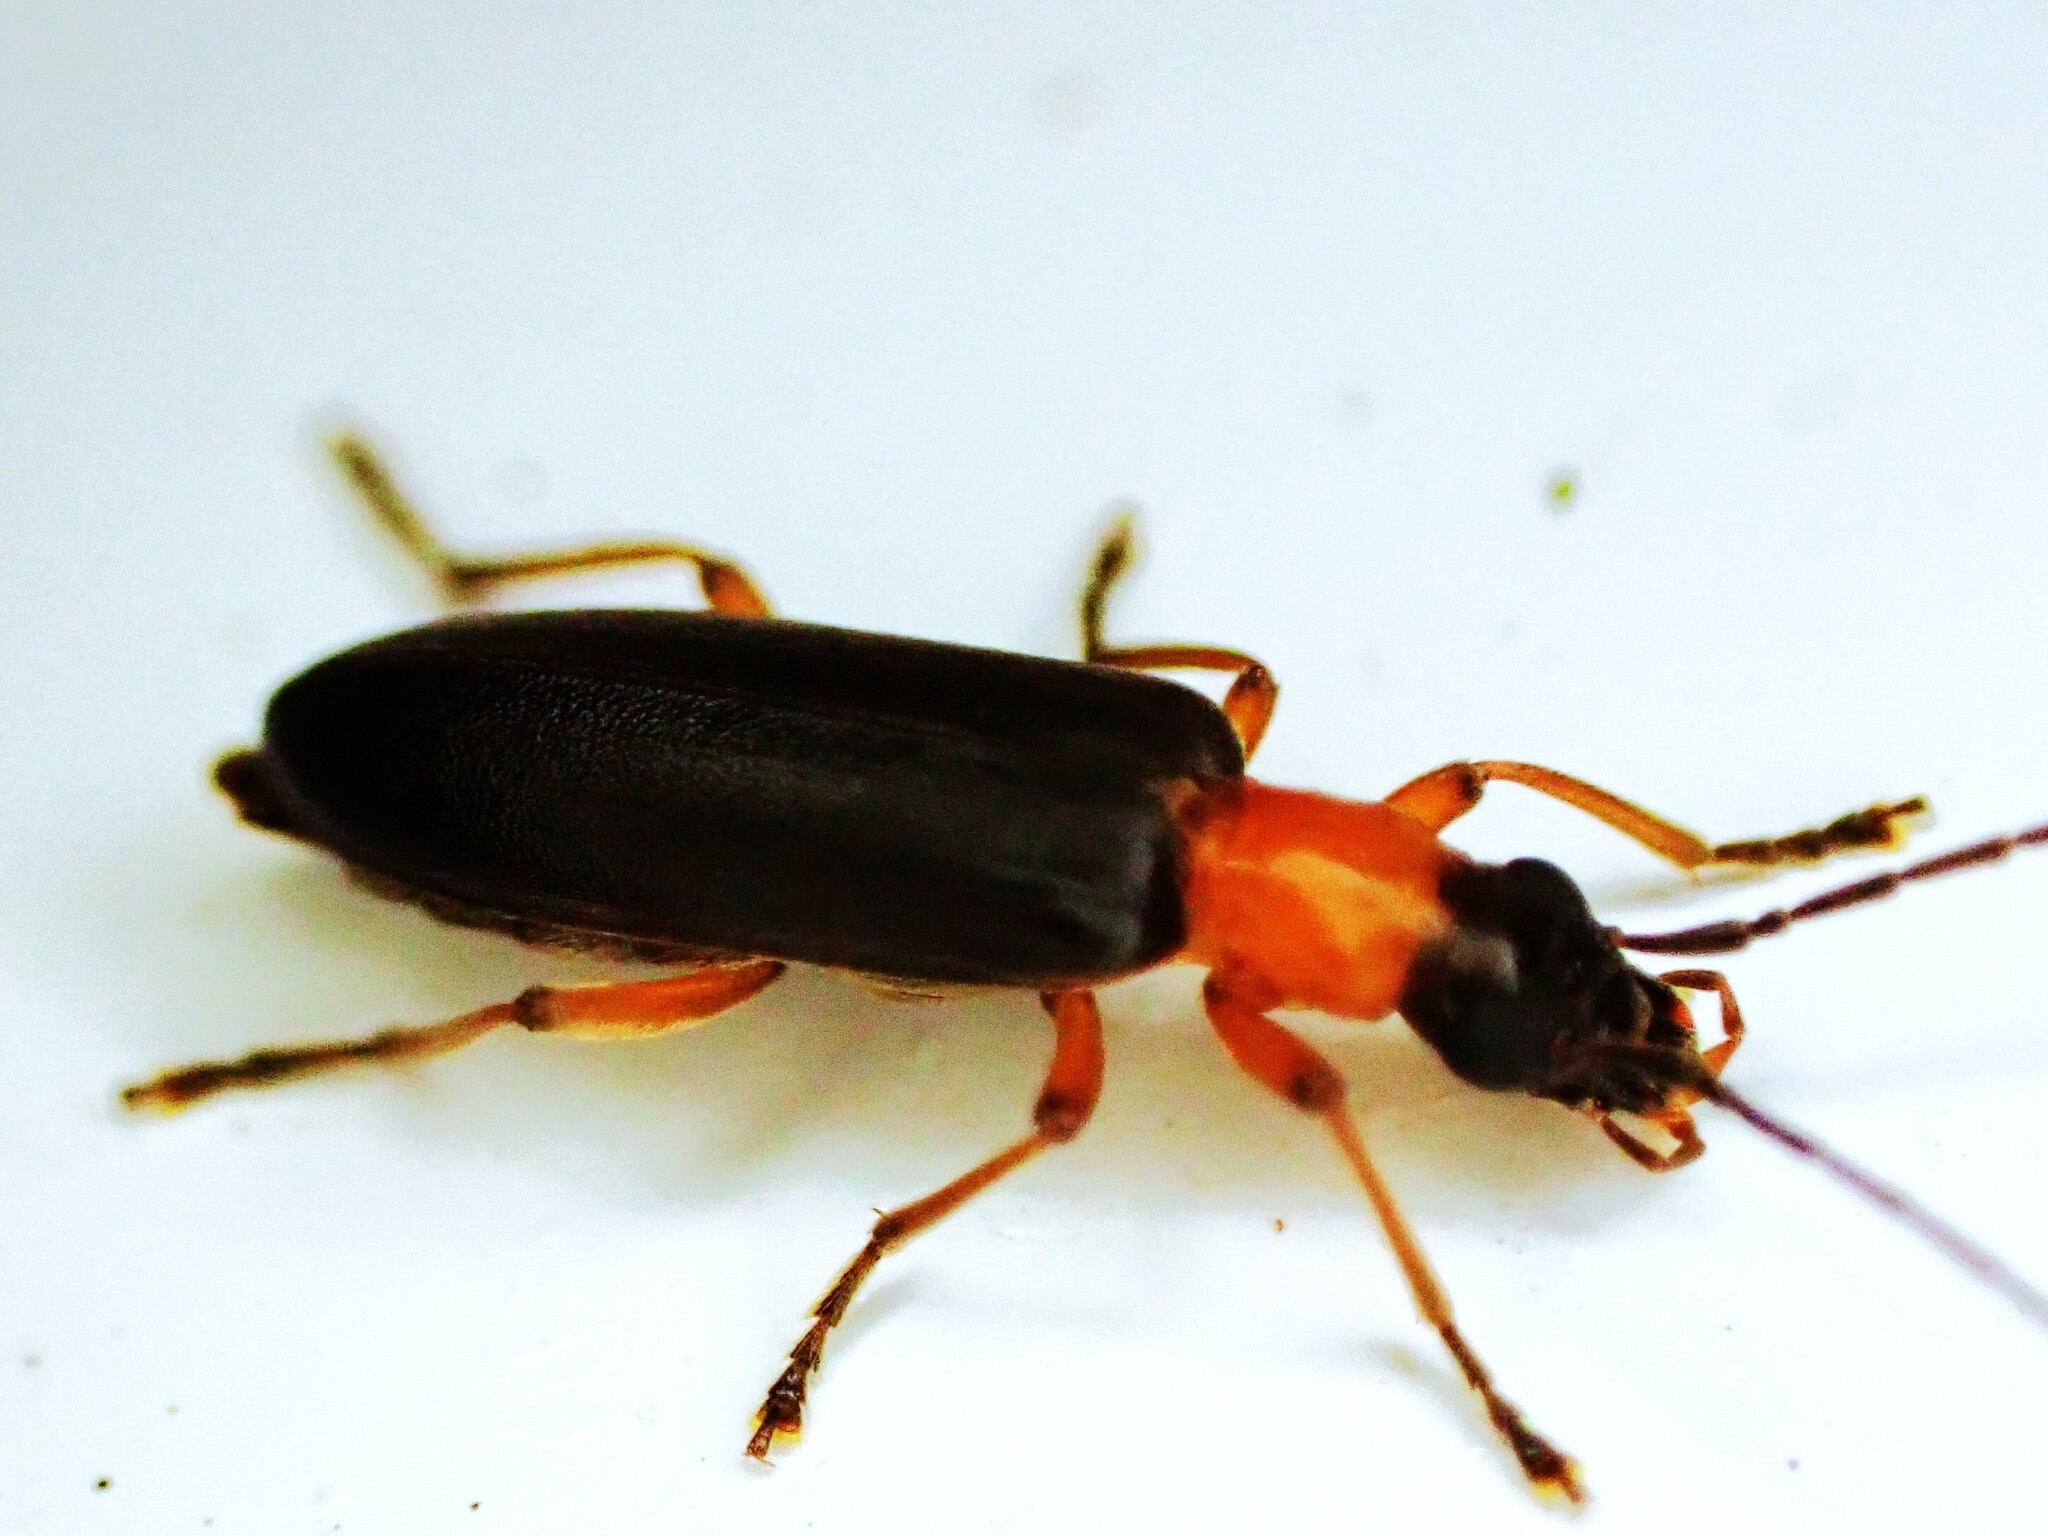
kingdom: Animalia
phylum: Arthropoda
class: Insecta
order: Coleoptera
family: Oedemeridae
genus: Ananca
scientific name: Ananca bicolor
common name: Red-black false blister-beetle
